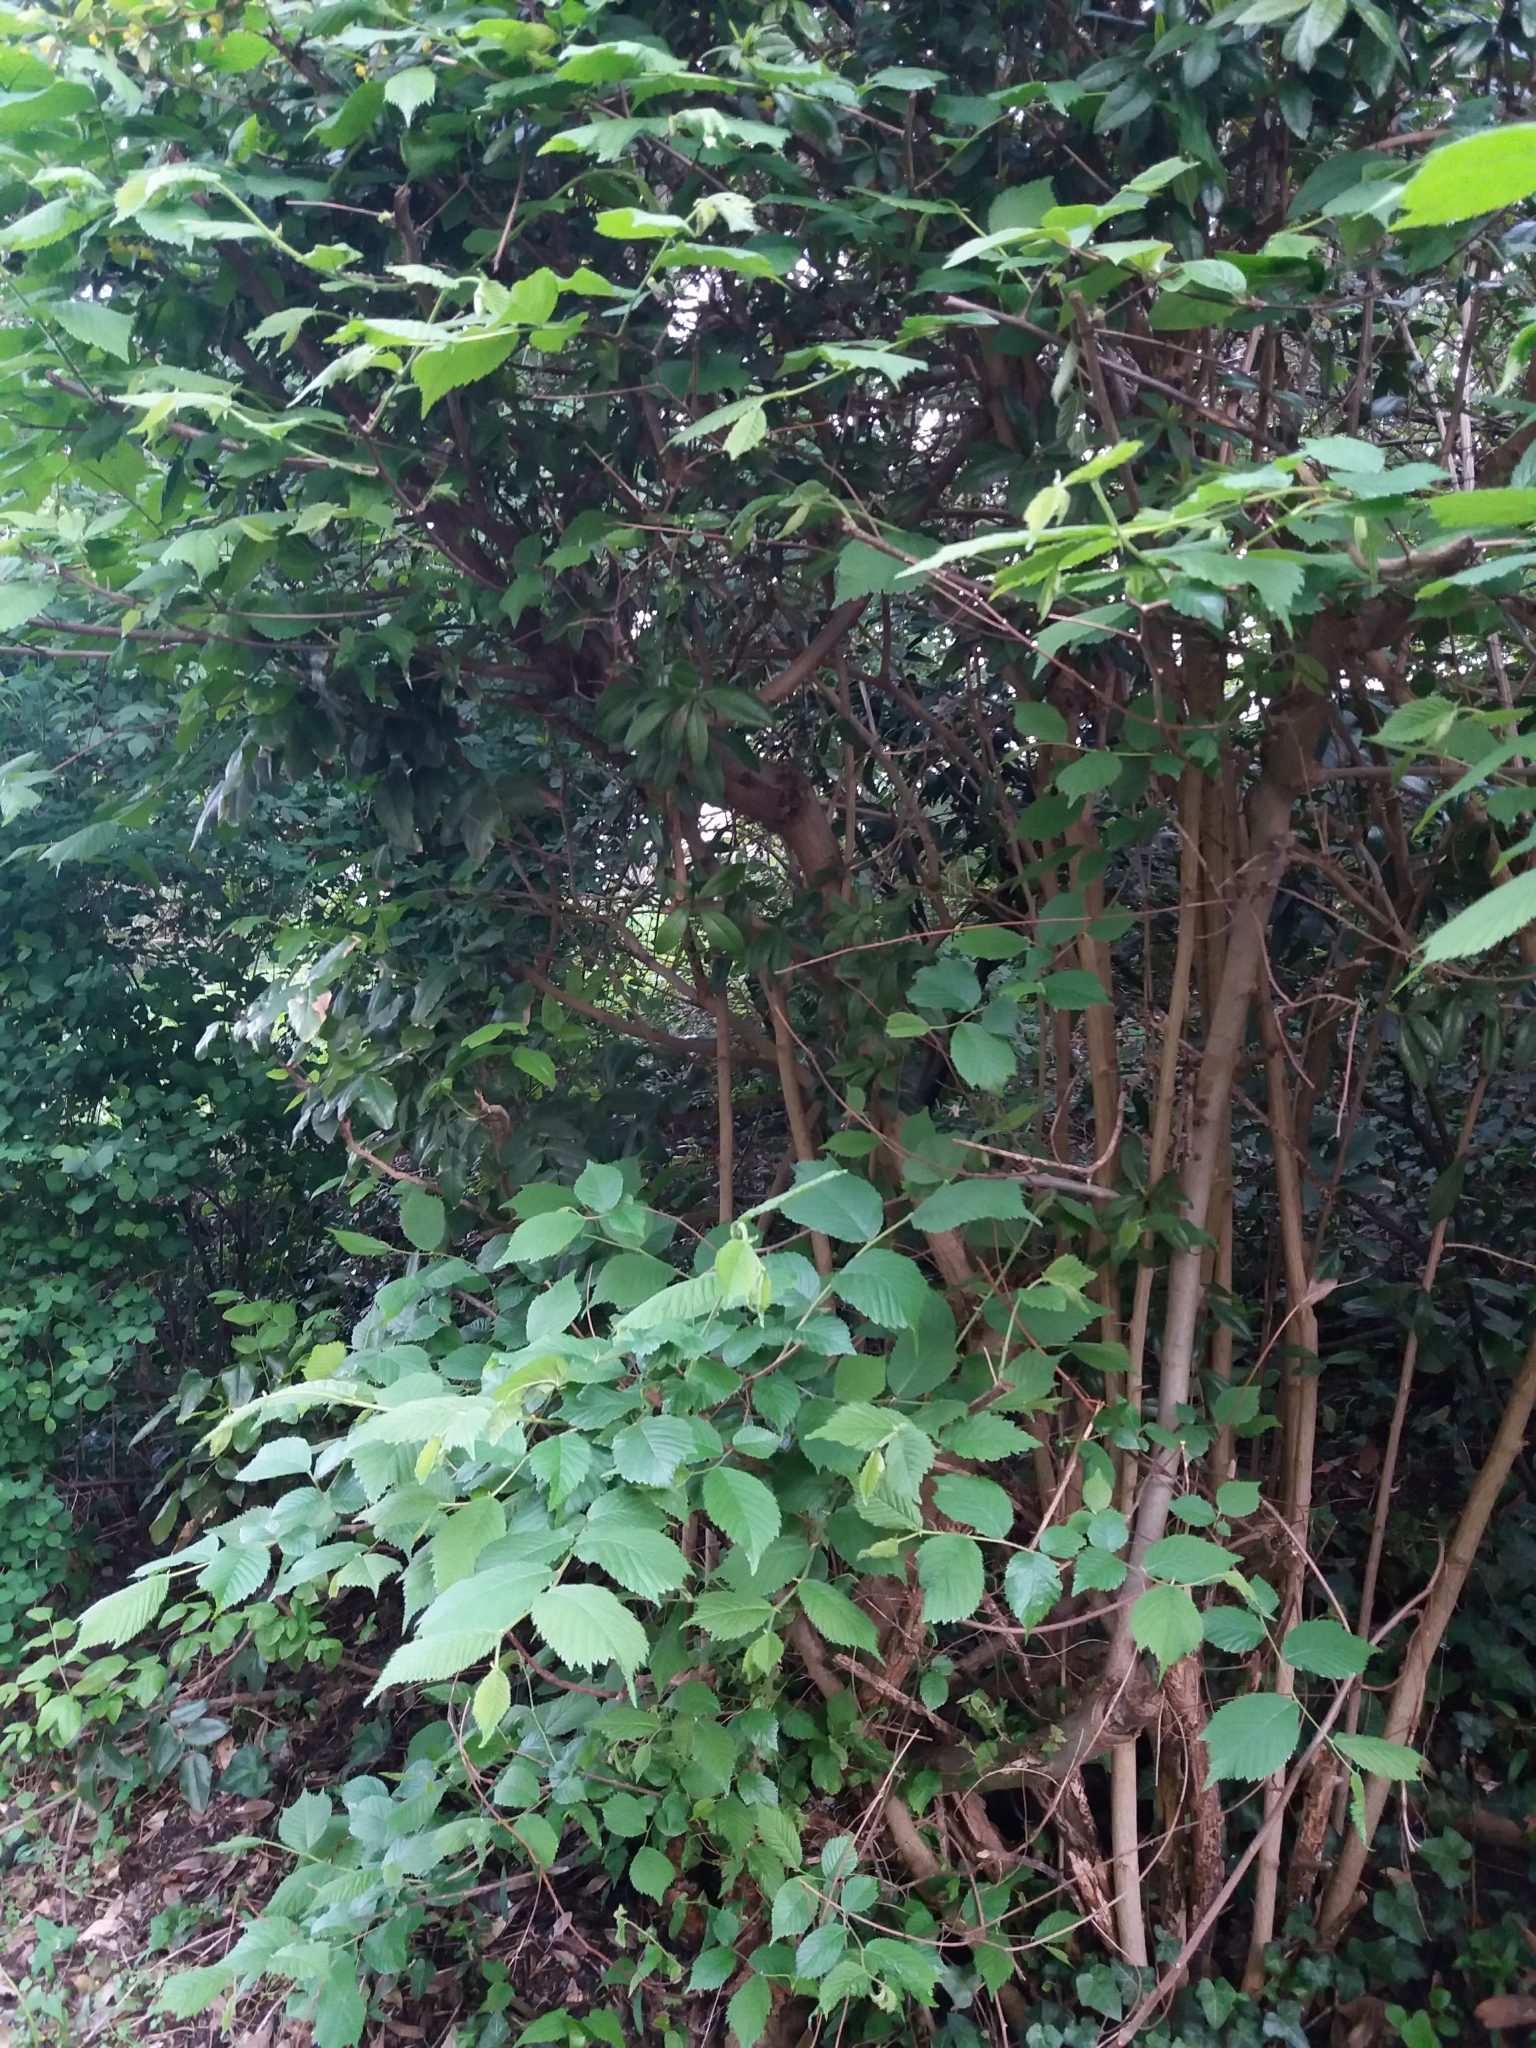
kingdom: Plantae
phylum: Tracheophyta
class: Magnoliopsida
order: Rosales
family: Ulmaceae
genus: Ulmus
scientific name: Ulmus glabra
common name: Wych elm
